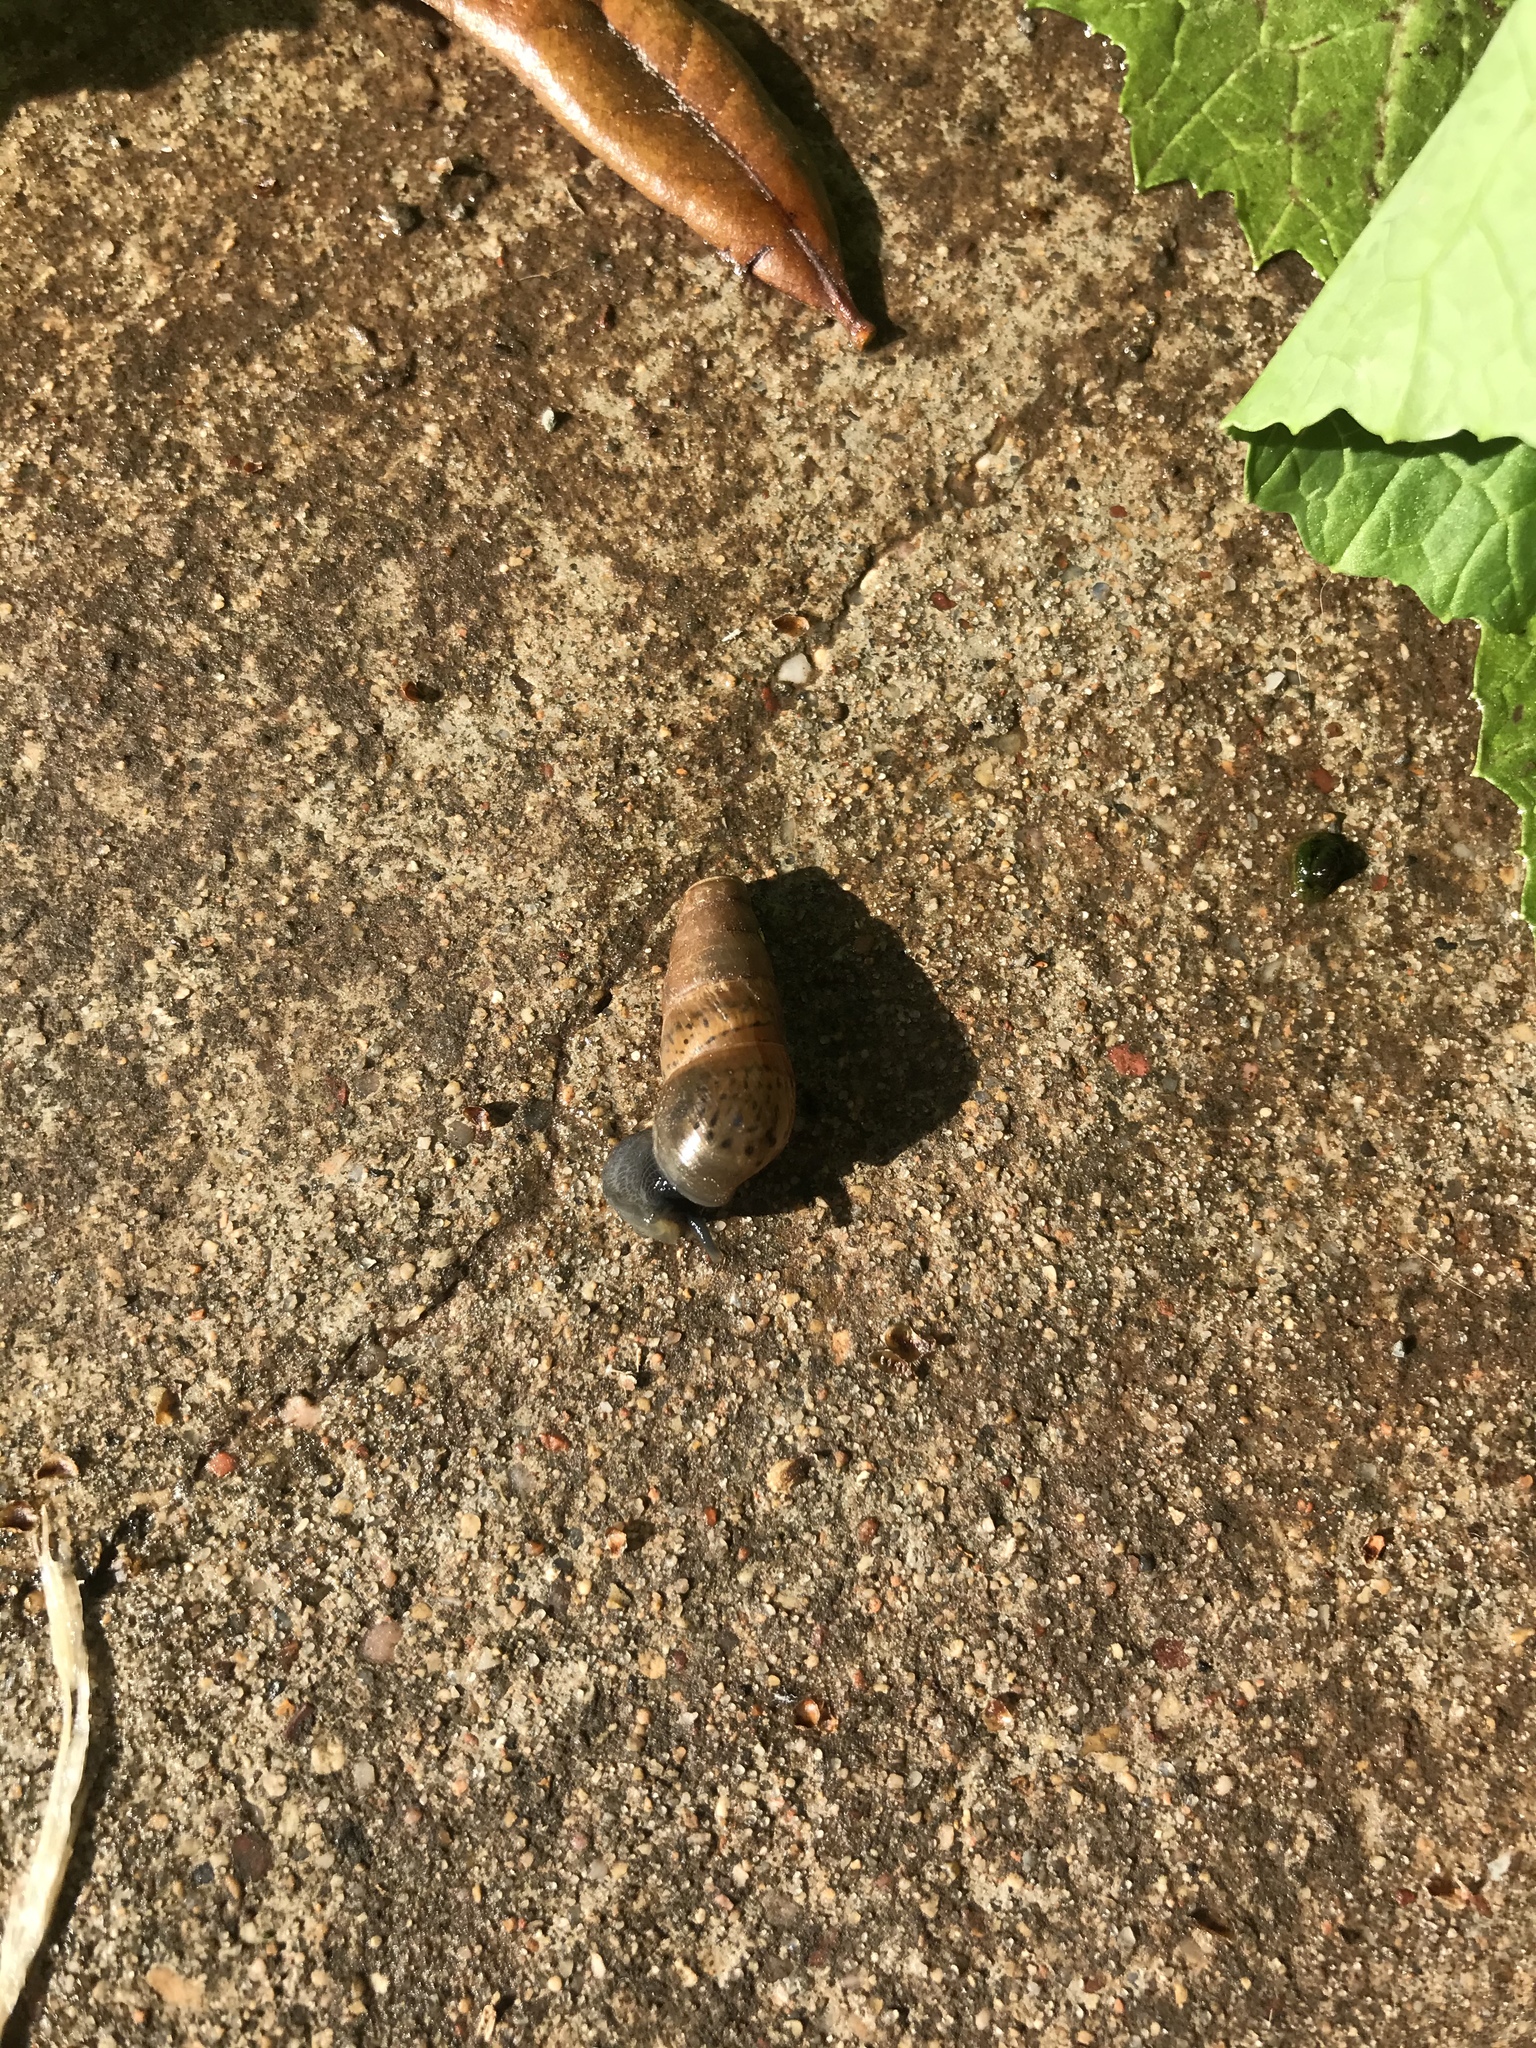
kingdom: Animalia
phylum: Mollusca
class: Gastropoda
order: Stylommatophora
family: Achatinidae
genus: Rumina
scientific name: Rumina decollata
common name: Decollate snail
